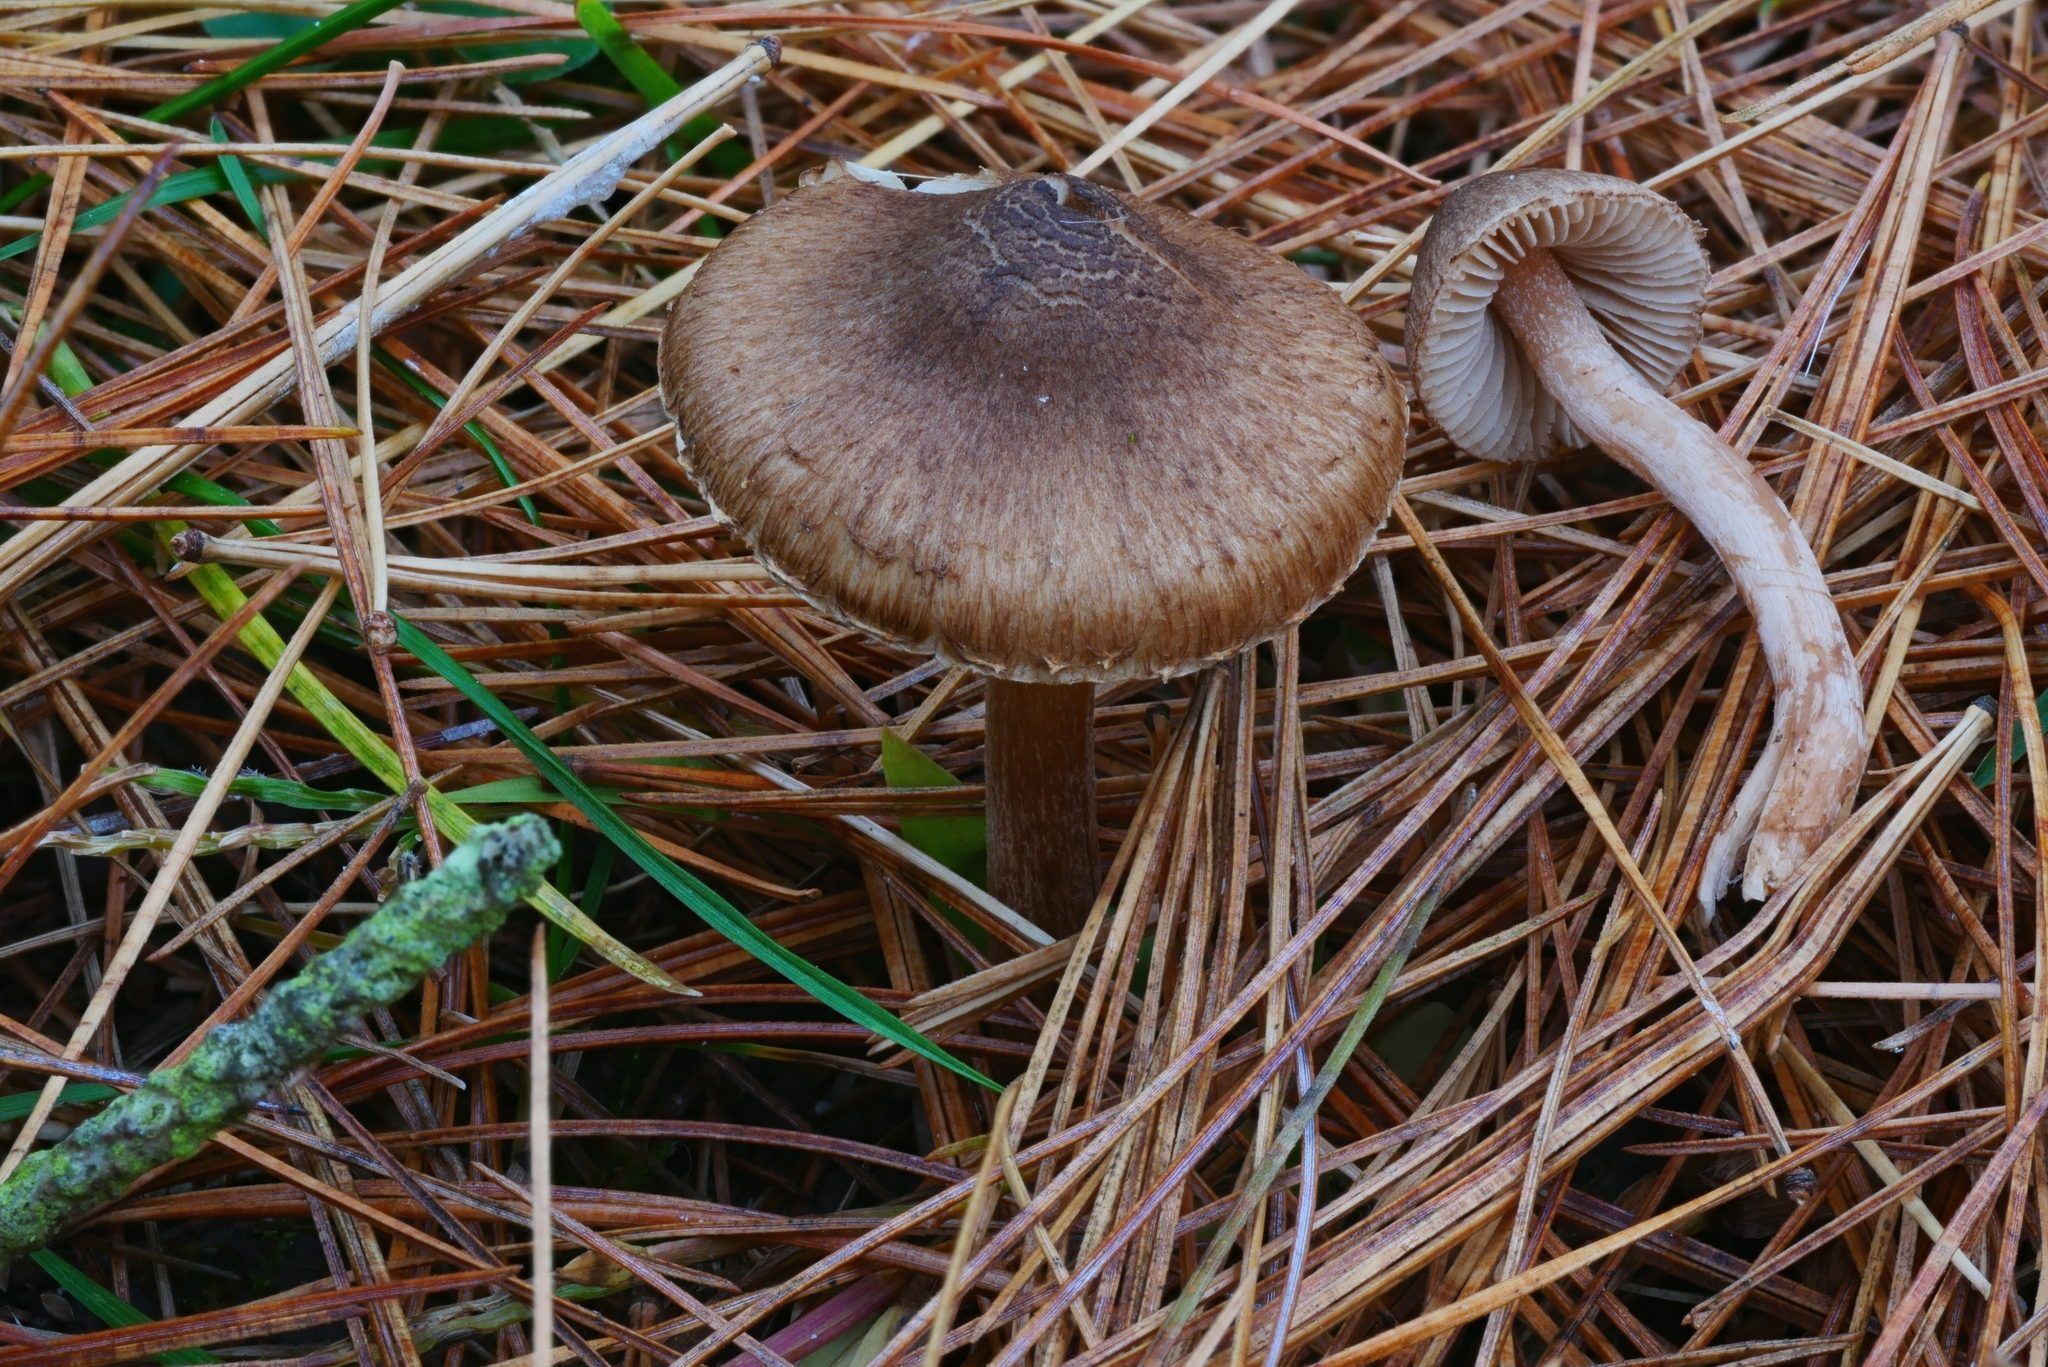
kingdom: Fungi
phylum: Basidiomycota
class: Agaricomycetes
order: Agaricales
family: Inocybaceae
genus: Inocybe
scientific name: Inocybe porcorum
